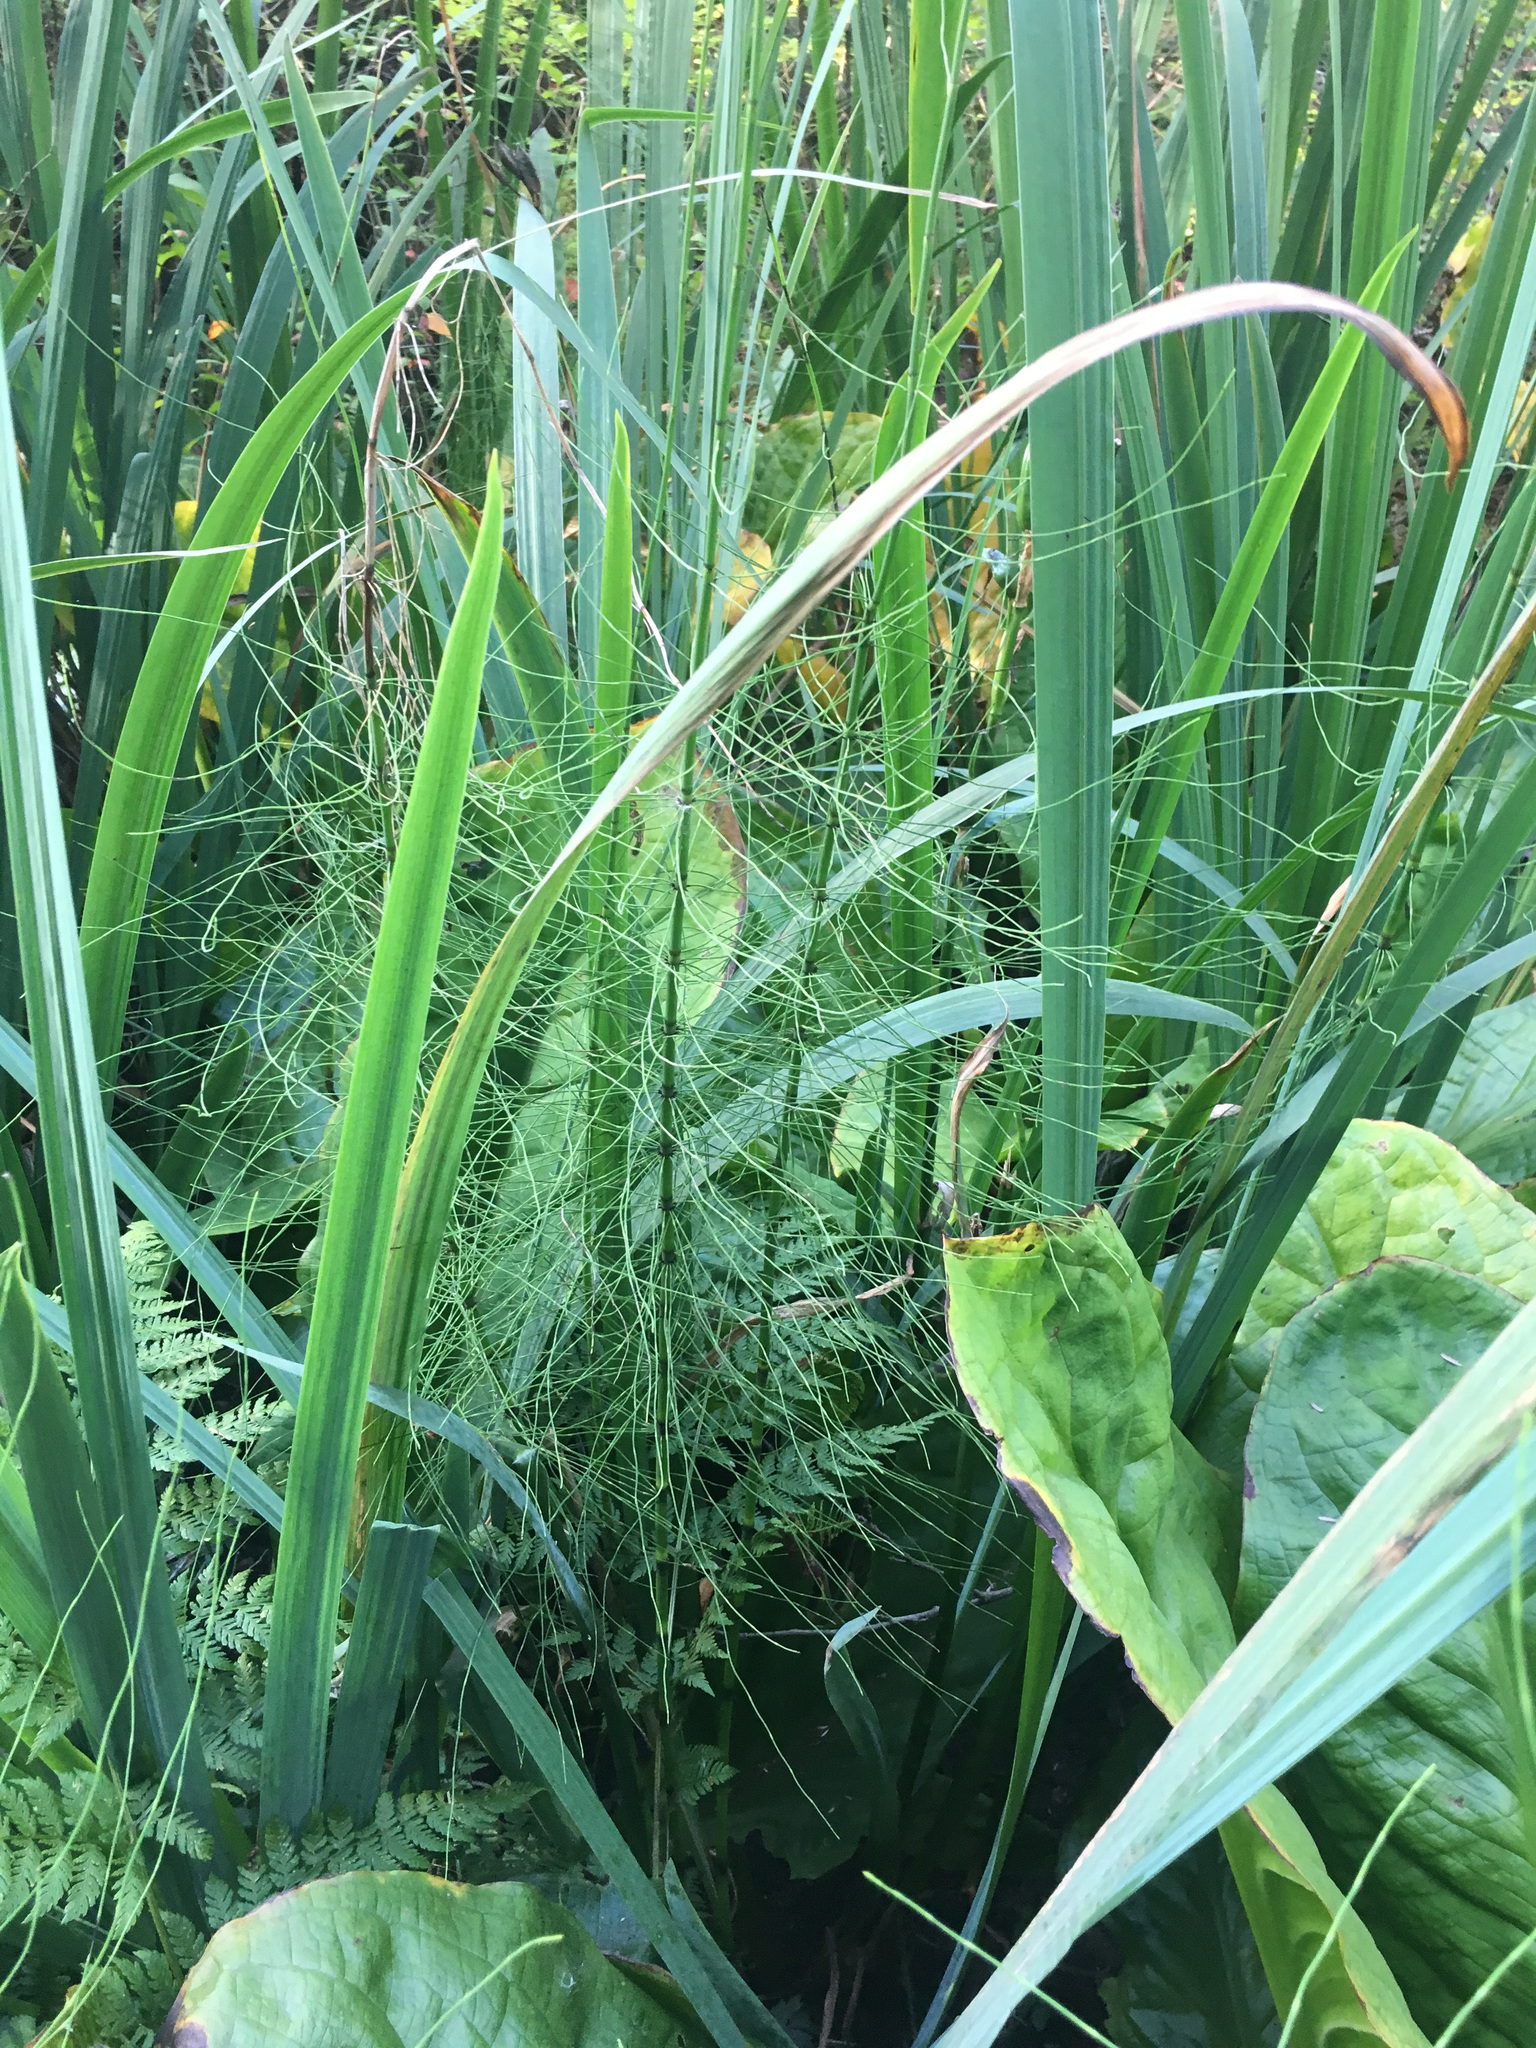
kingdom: Plantae
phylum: Tracheophyta
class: Polypodiopsida
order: Equisetales
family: Equisetaceae
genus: Equisetum
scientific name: Equisetum braunii
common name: Braun's horsetail
